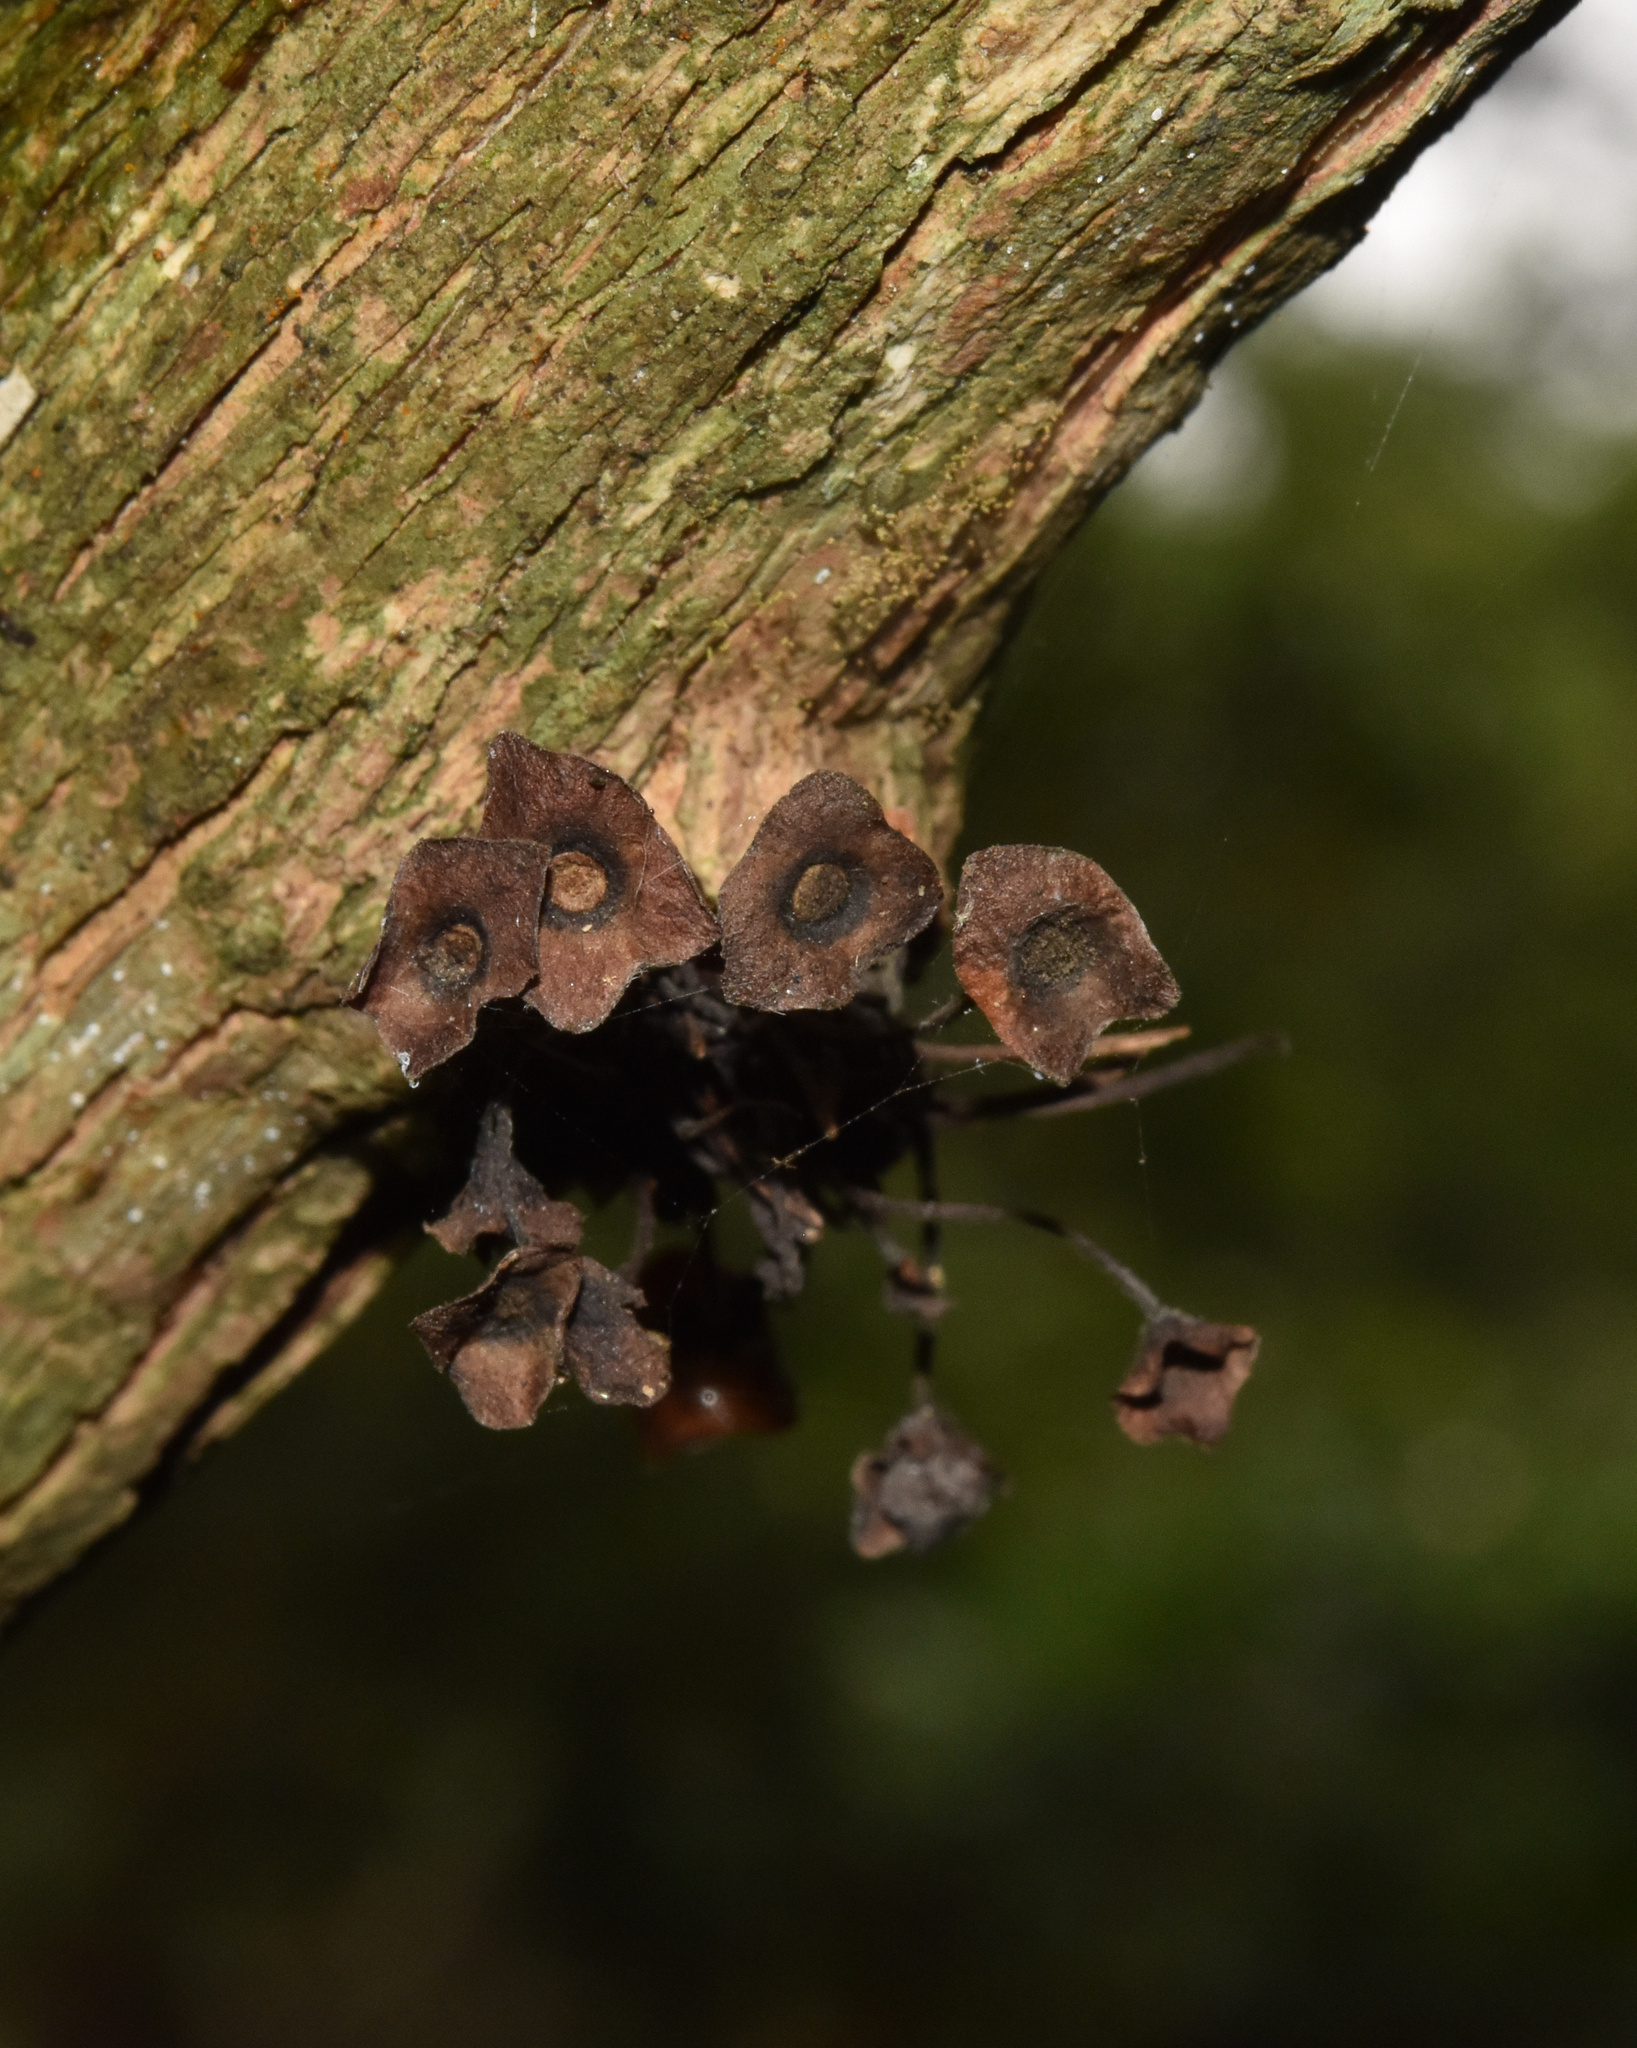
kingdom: Plantae
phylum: Tracheophyta
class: Magnoliopsida
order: Lamiales
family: Stilbaceae
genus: Halleria
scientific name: Halleria lucida
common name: Tree fuschia
